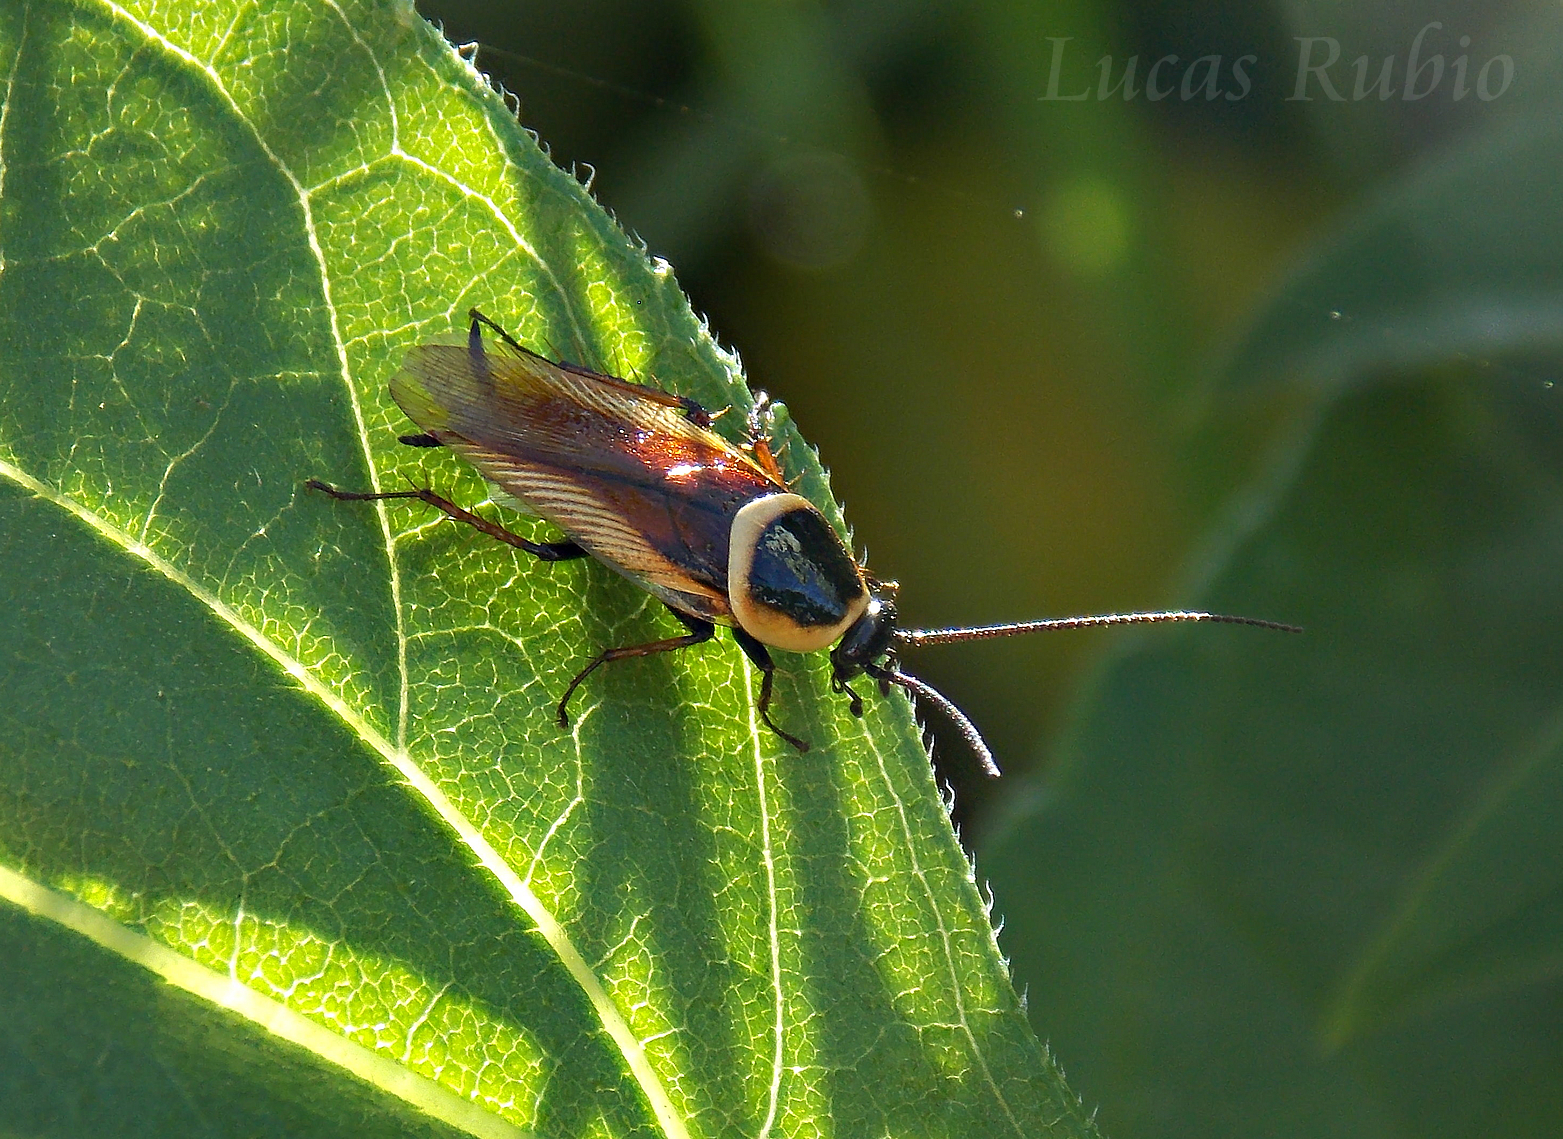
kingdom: Animalia
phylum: Arthropoda
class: Insecta
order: Blattodea
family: Ectobiidae
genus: Pseudomops
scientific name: Pseudomops neglectus
